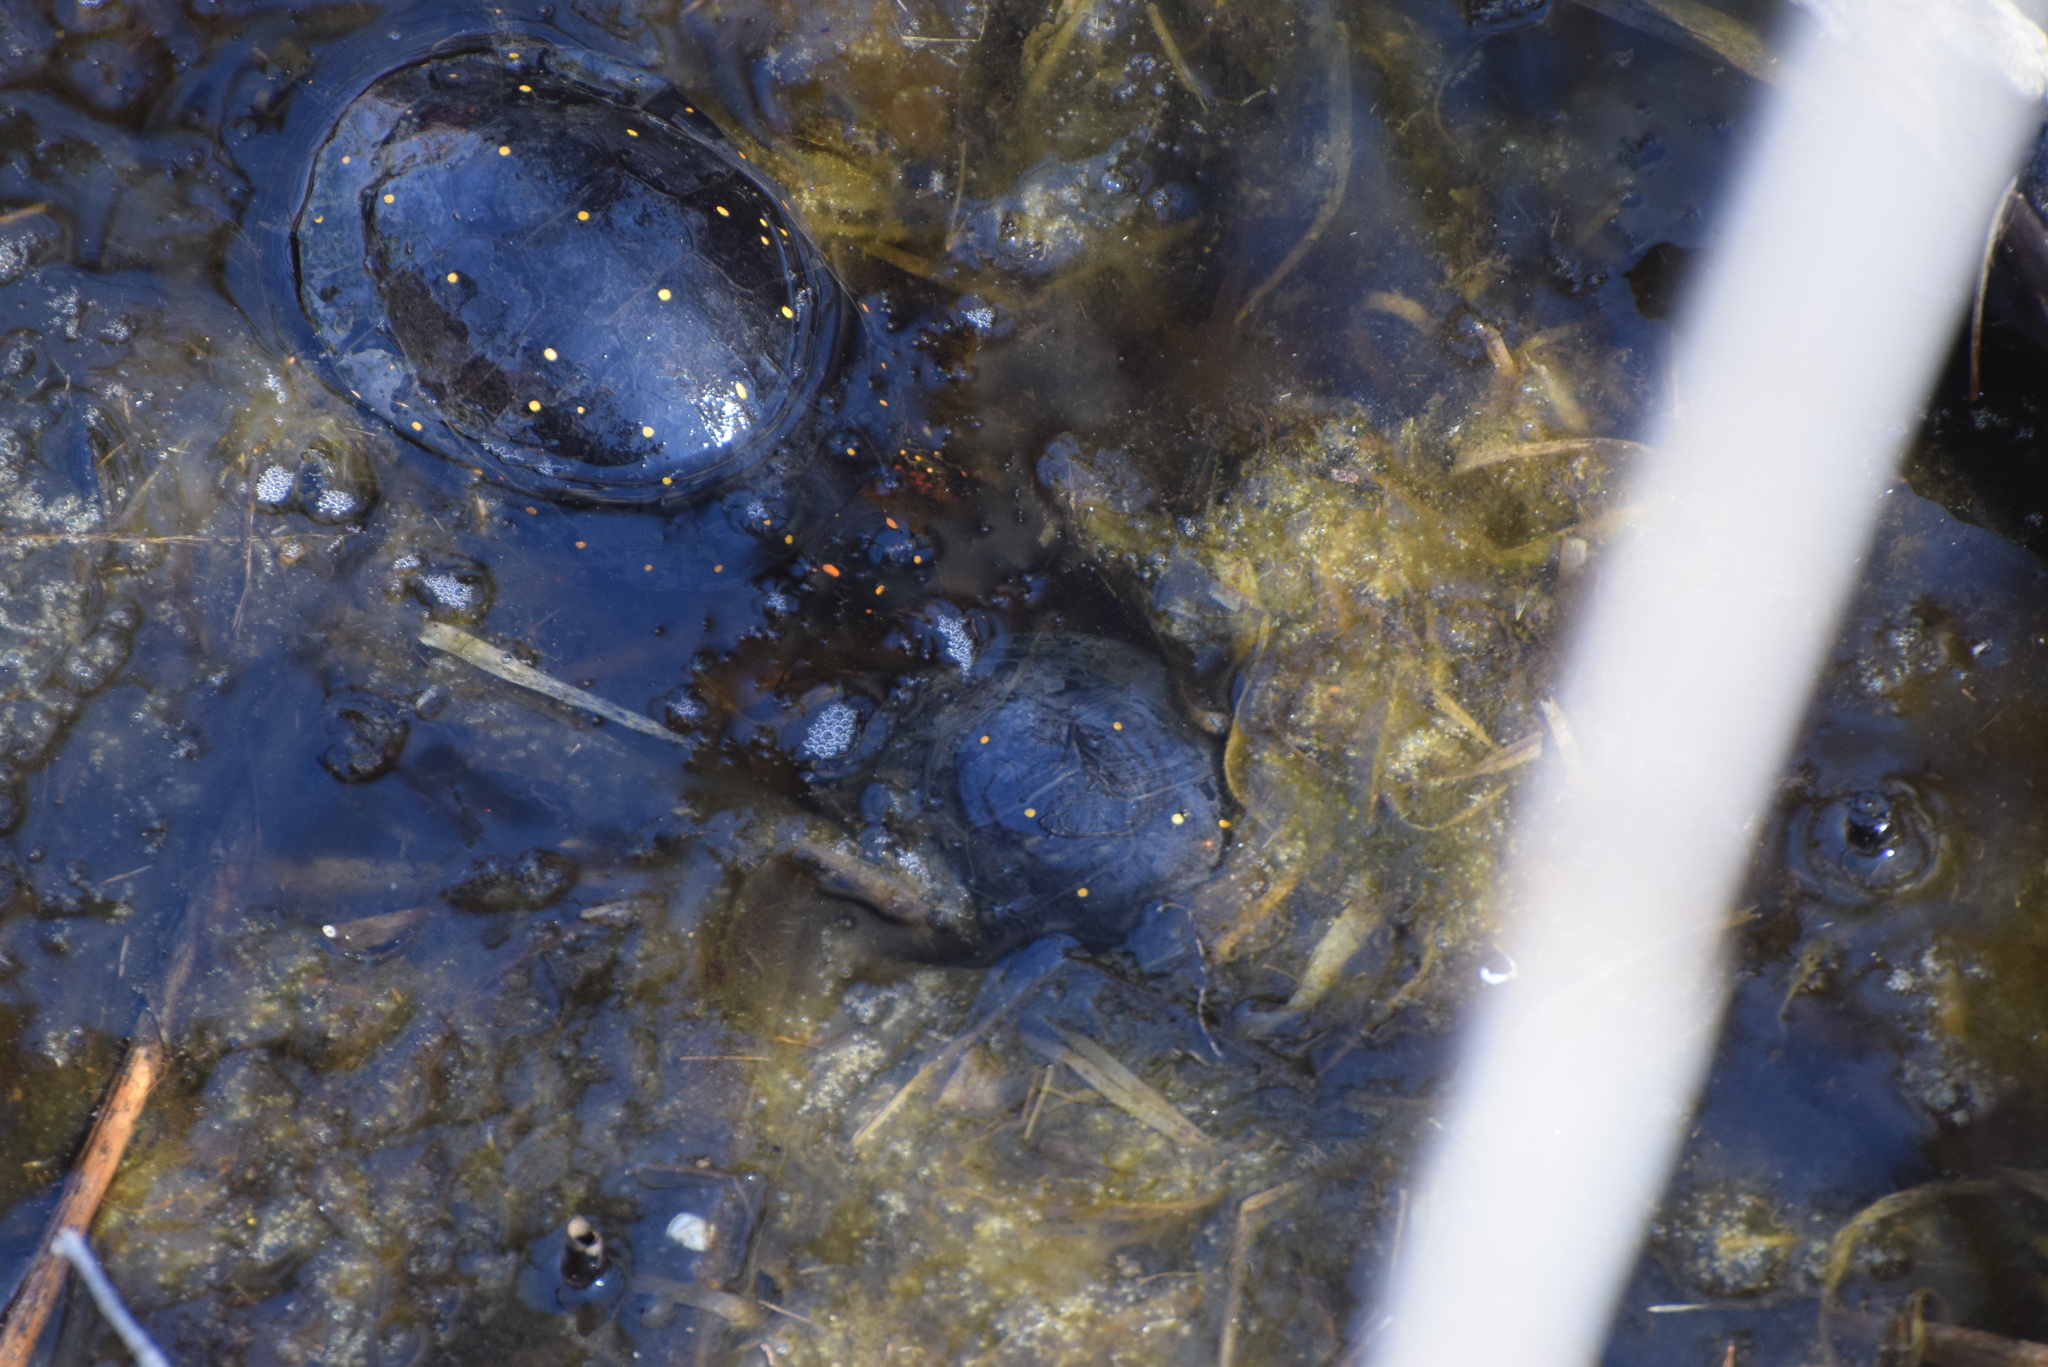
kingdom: Animalia
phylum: Chordata
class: Testudines
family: Emydidae
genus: Clemmys
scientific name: Clemmys guttata
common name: Spotted turtle
